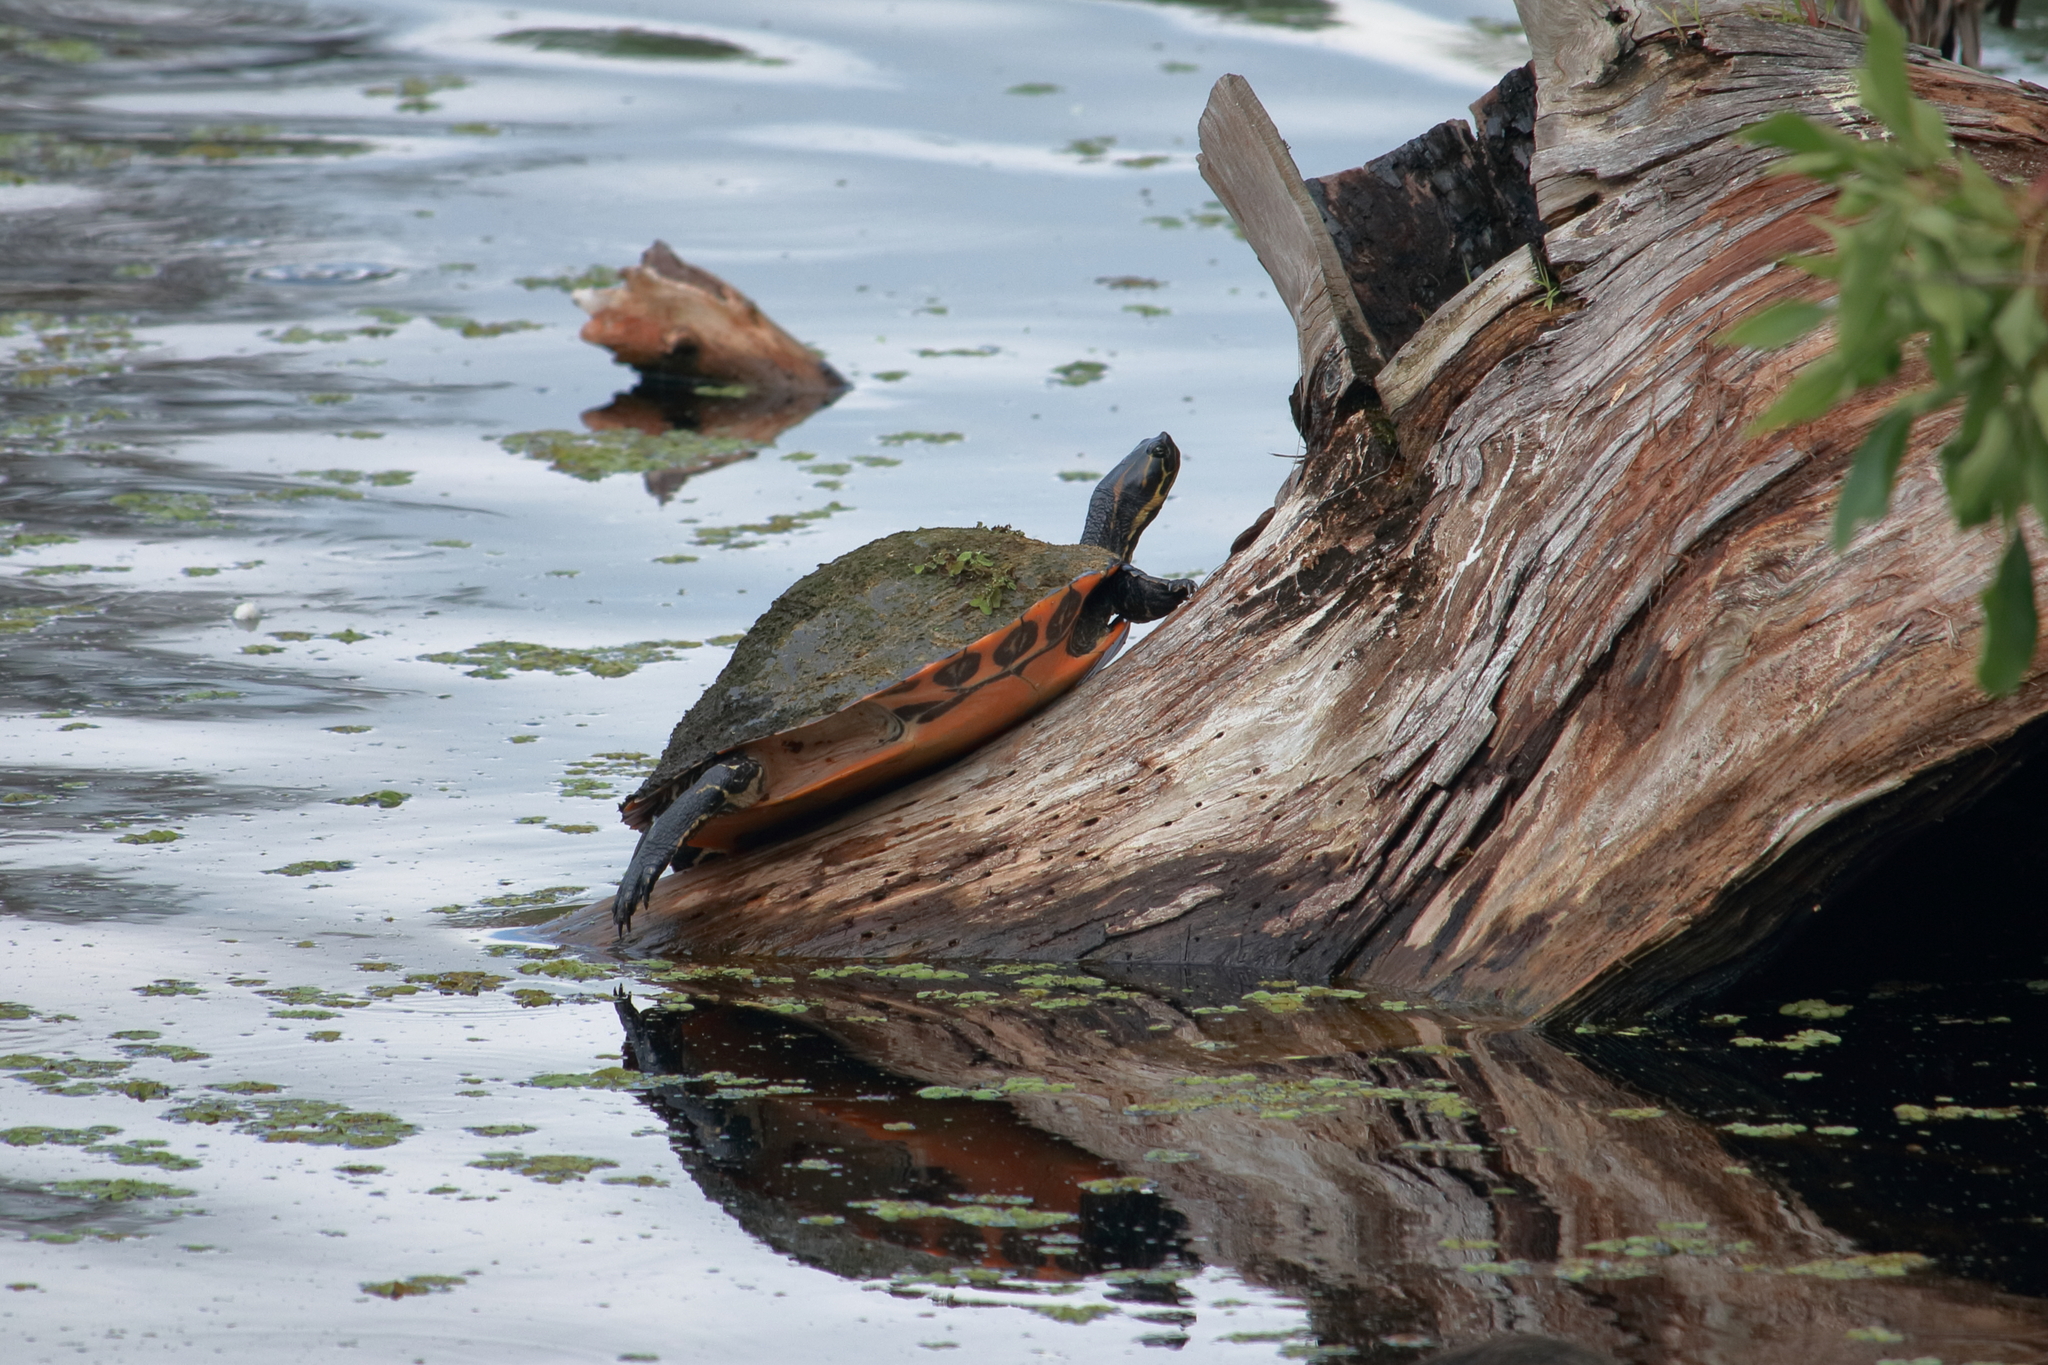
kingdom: Animalia
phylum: Chordata
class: Testudines
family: Emydidae
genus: Pseudemys
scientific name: Pseudemys nelsoni
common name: Florida red-bellied turtle
